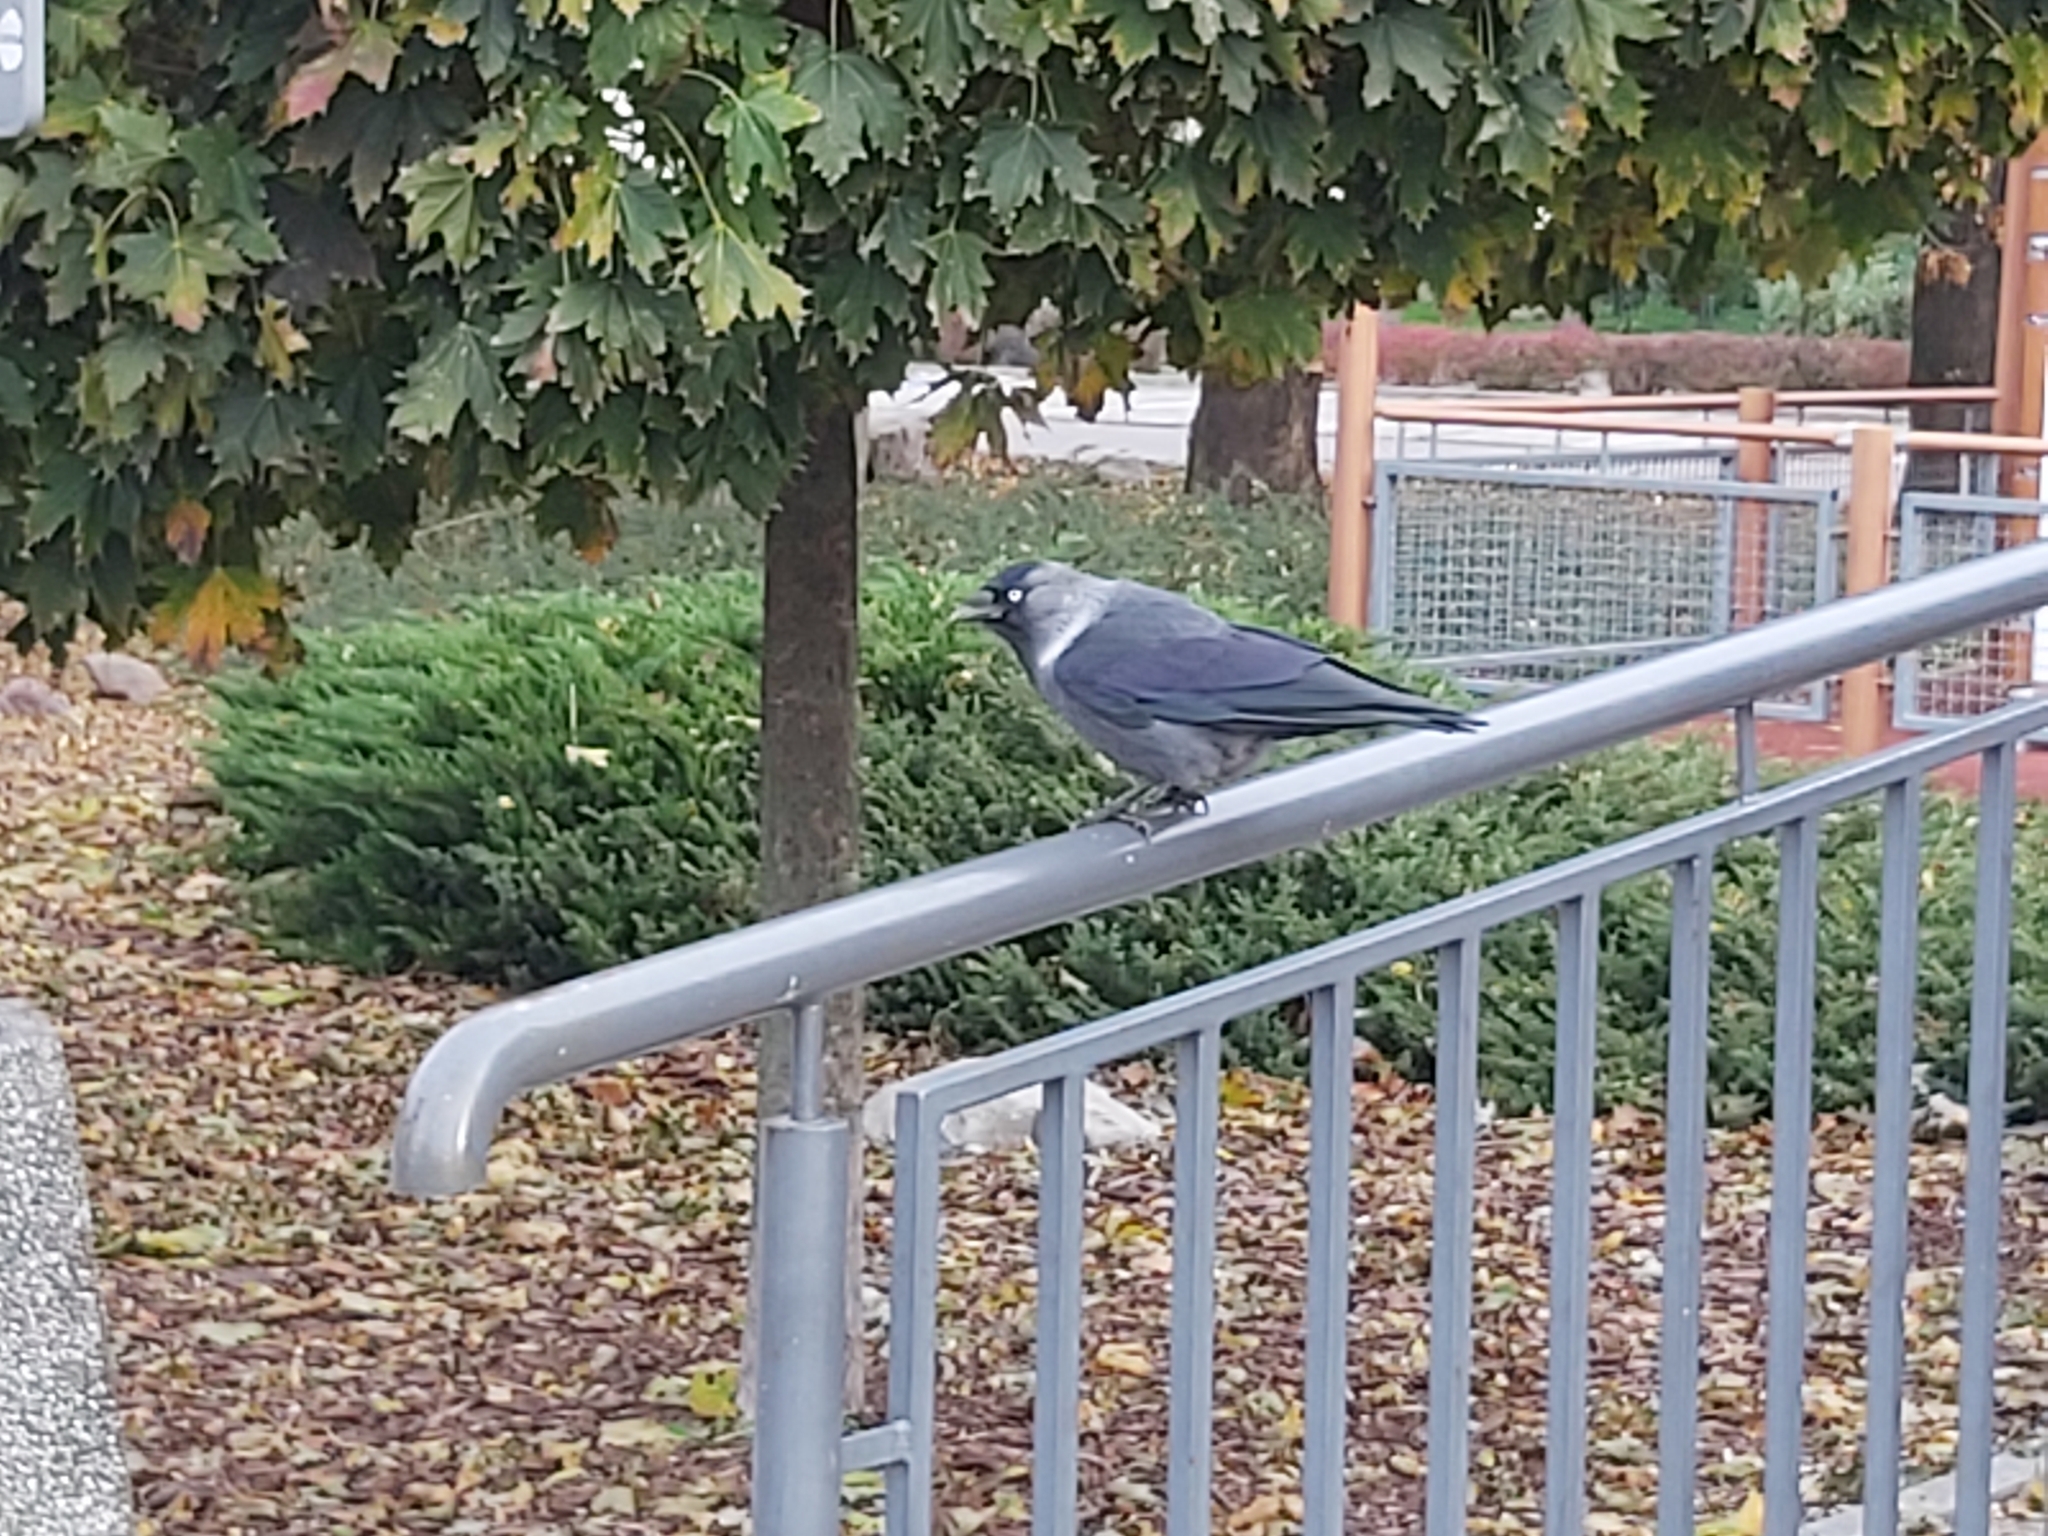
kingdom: Animalia
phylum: Chordata
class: Aves
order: Passeriformes
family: Corvidae
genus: Coloeus
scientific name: Coloeus monedula
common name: Western jackdaw
